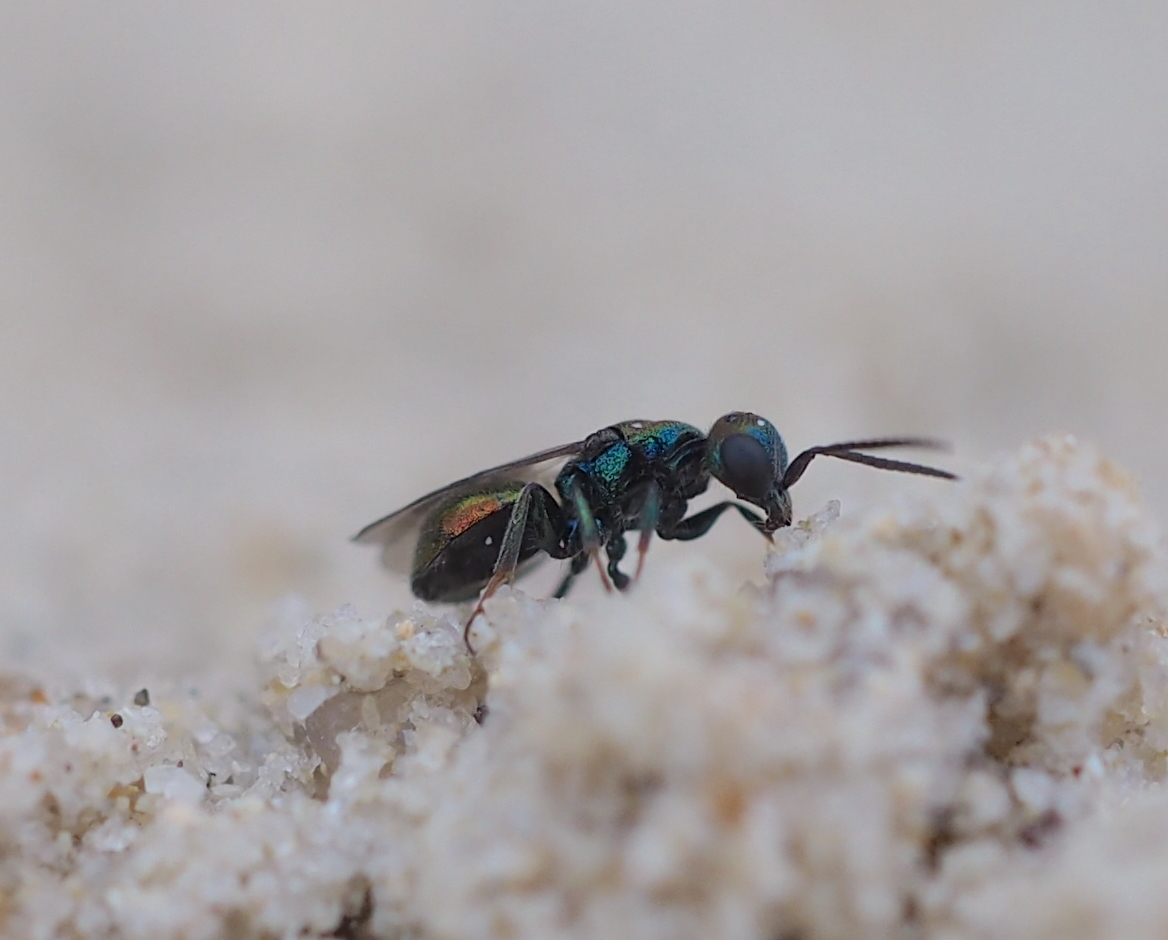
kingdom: Animalia
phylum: Arthropoda
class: Insecta
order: Hymenoptera
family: Chrysididae
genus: Hedychridium
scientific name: Hedychridium
